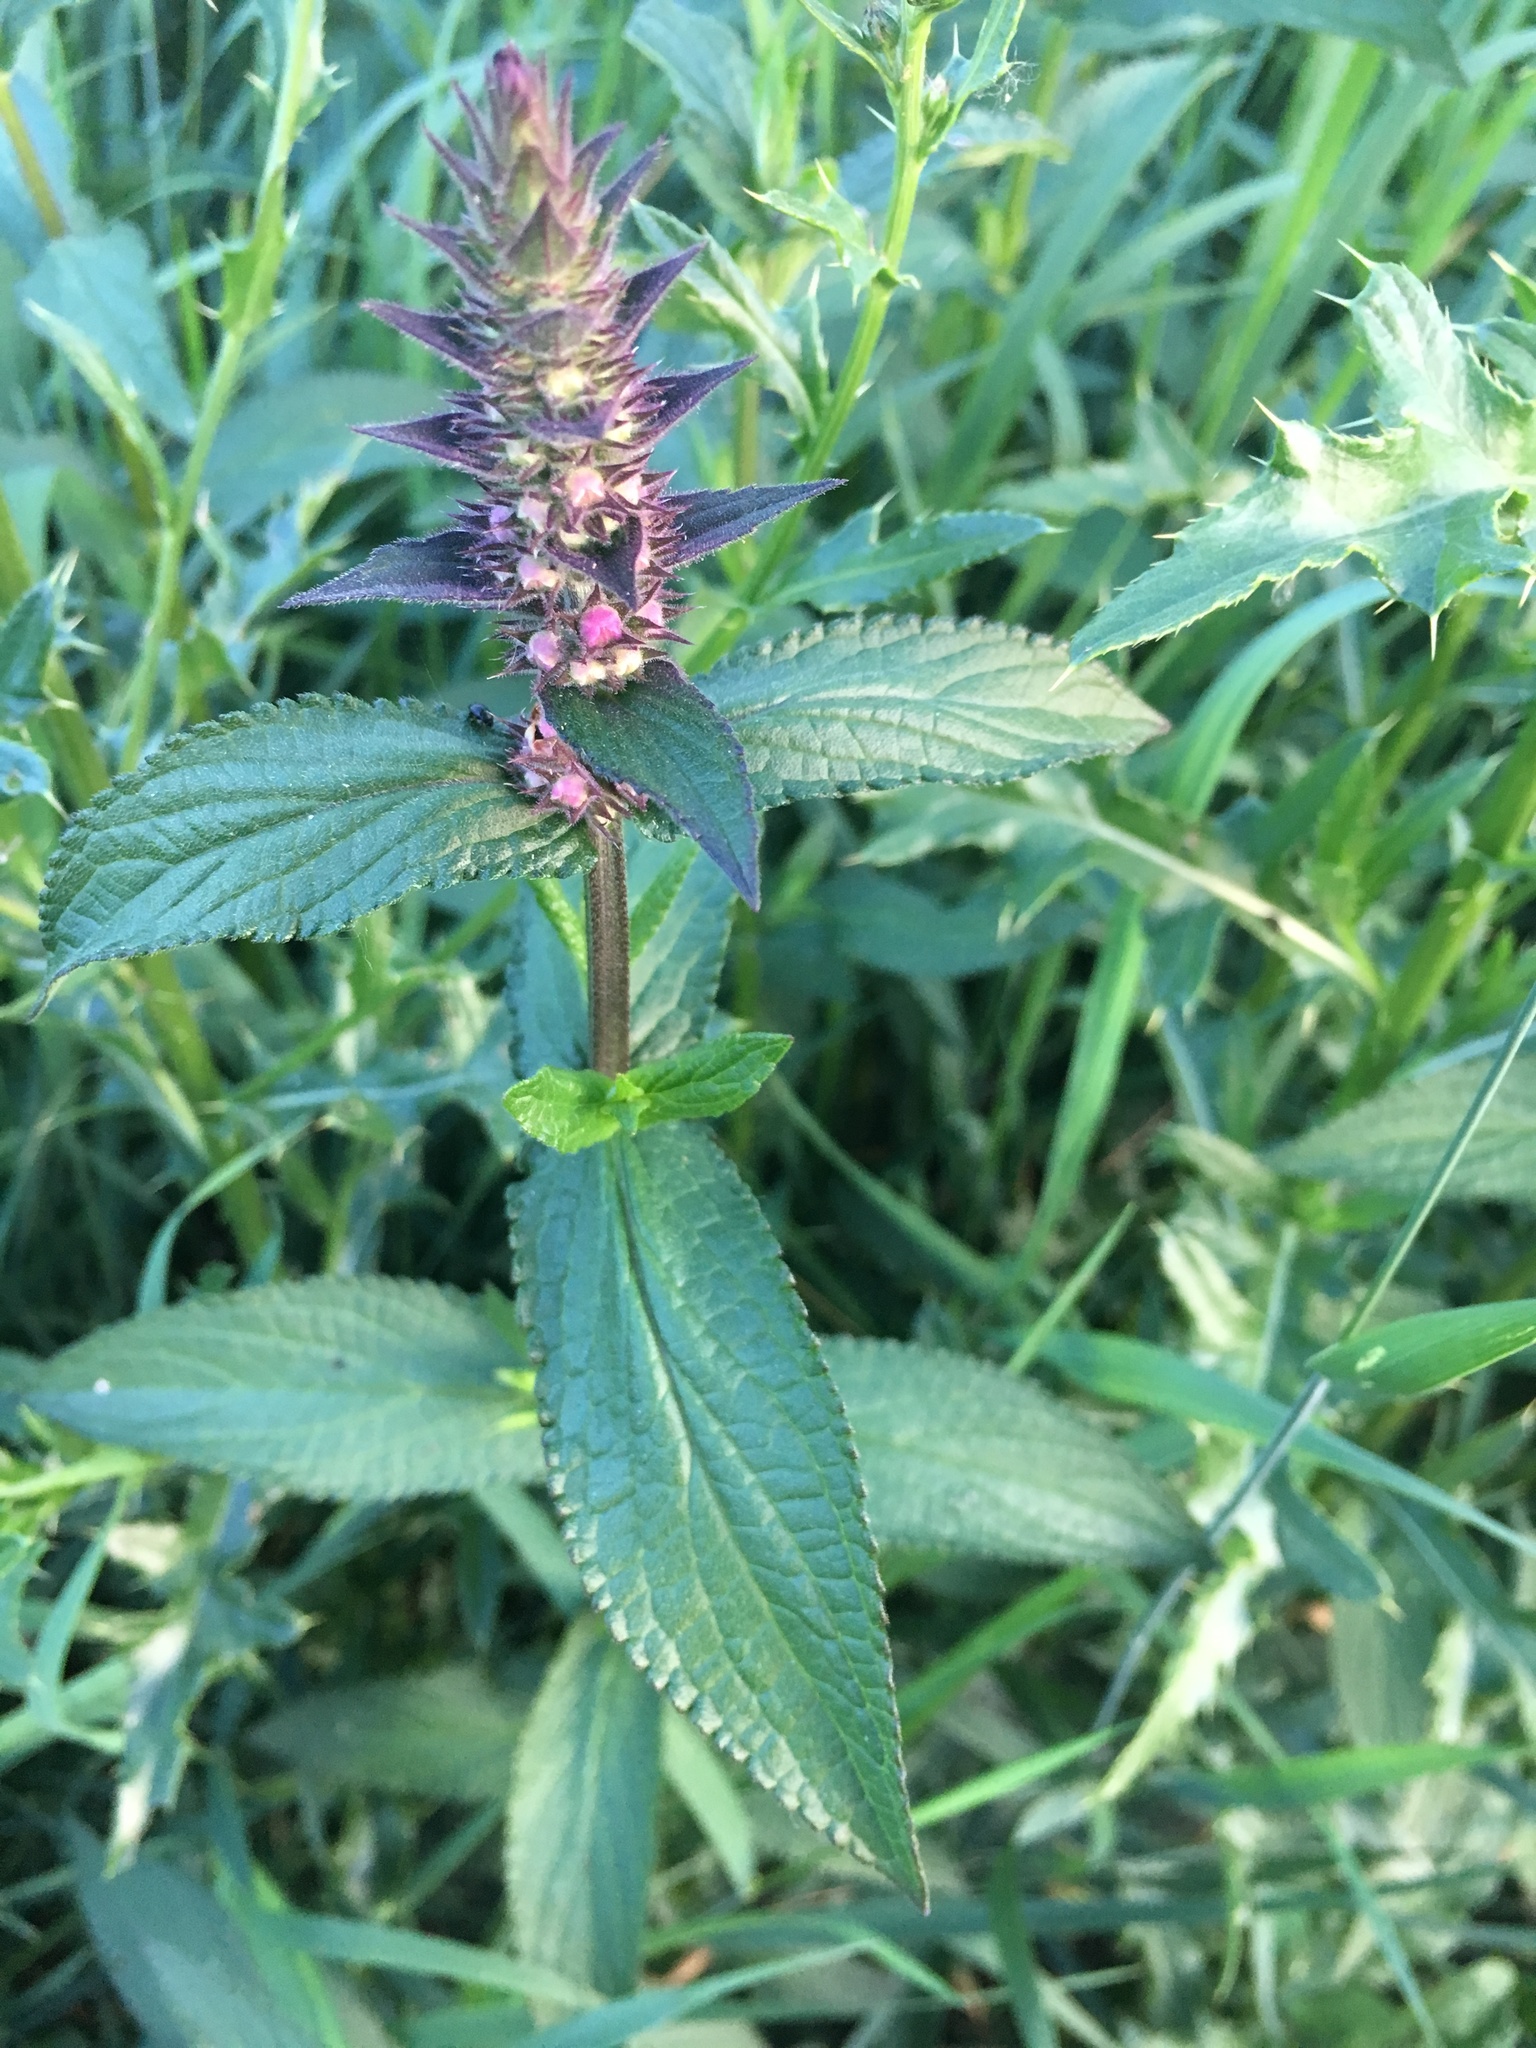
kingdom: Plantae
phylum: Tracheophyta
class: Magnoliopsida
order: Lamiales
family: Lamiaceae
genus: Stachys
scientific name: Stachys palustris
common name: Marsh woundwort
